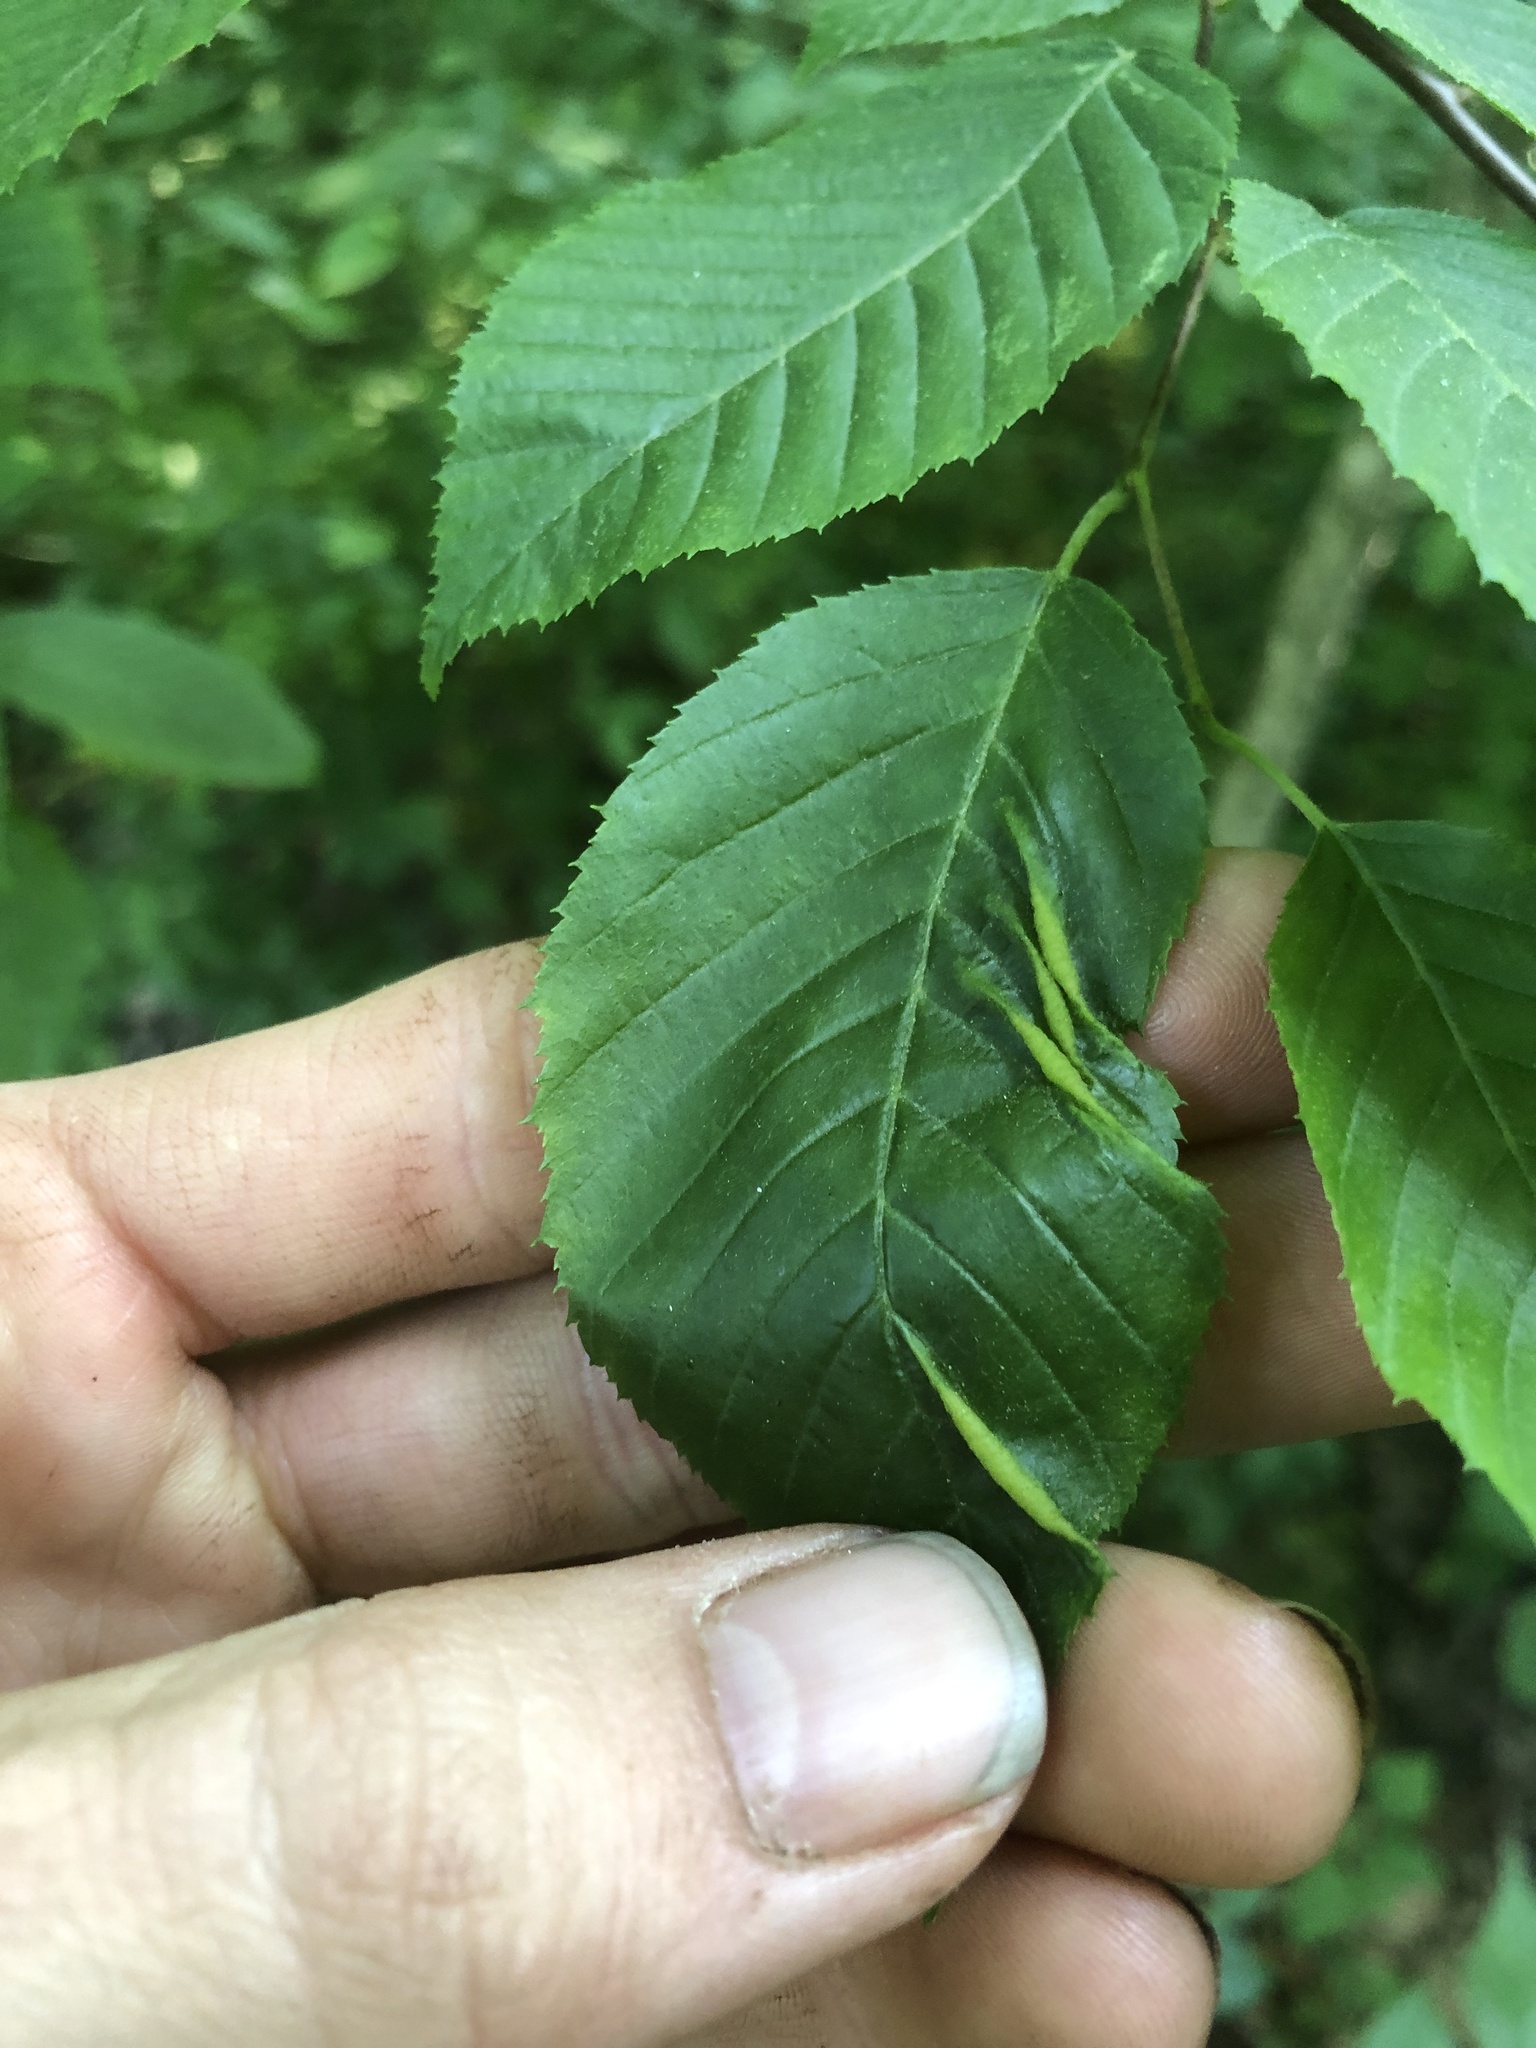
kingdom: Animalia
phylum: Arthropoda
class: Insecta
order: Diptera
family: Cecidomyiidae
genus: Dasineura
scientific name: Dasineura pudibunda
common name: Hornbeam leaf gall midge
